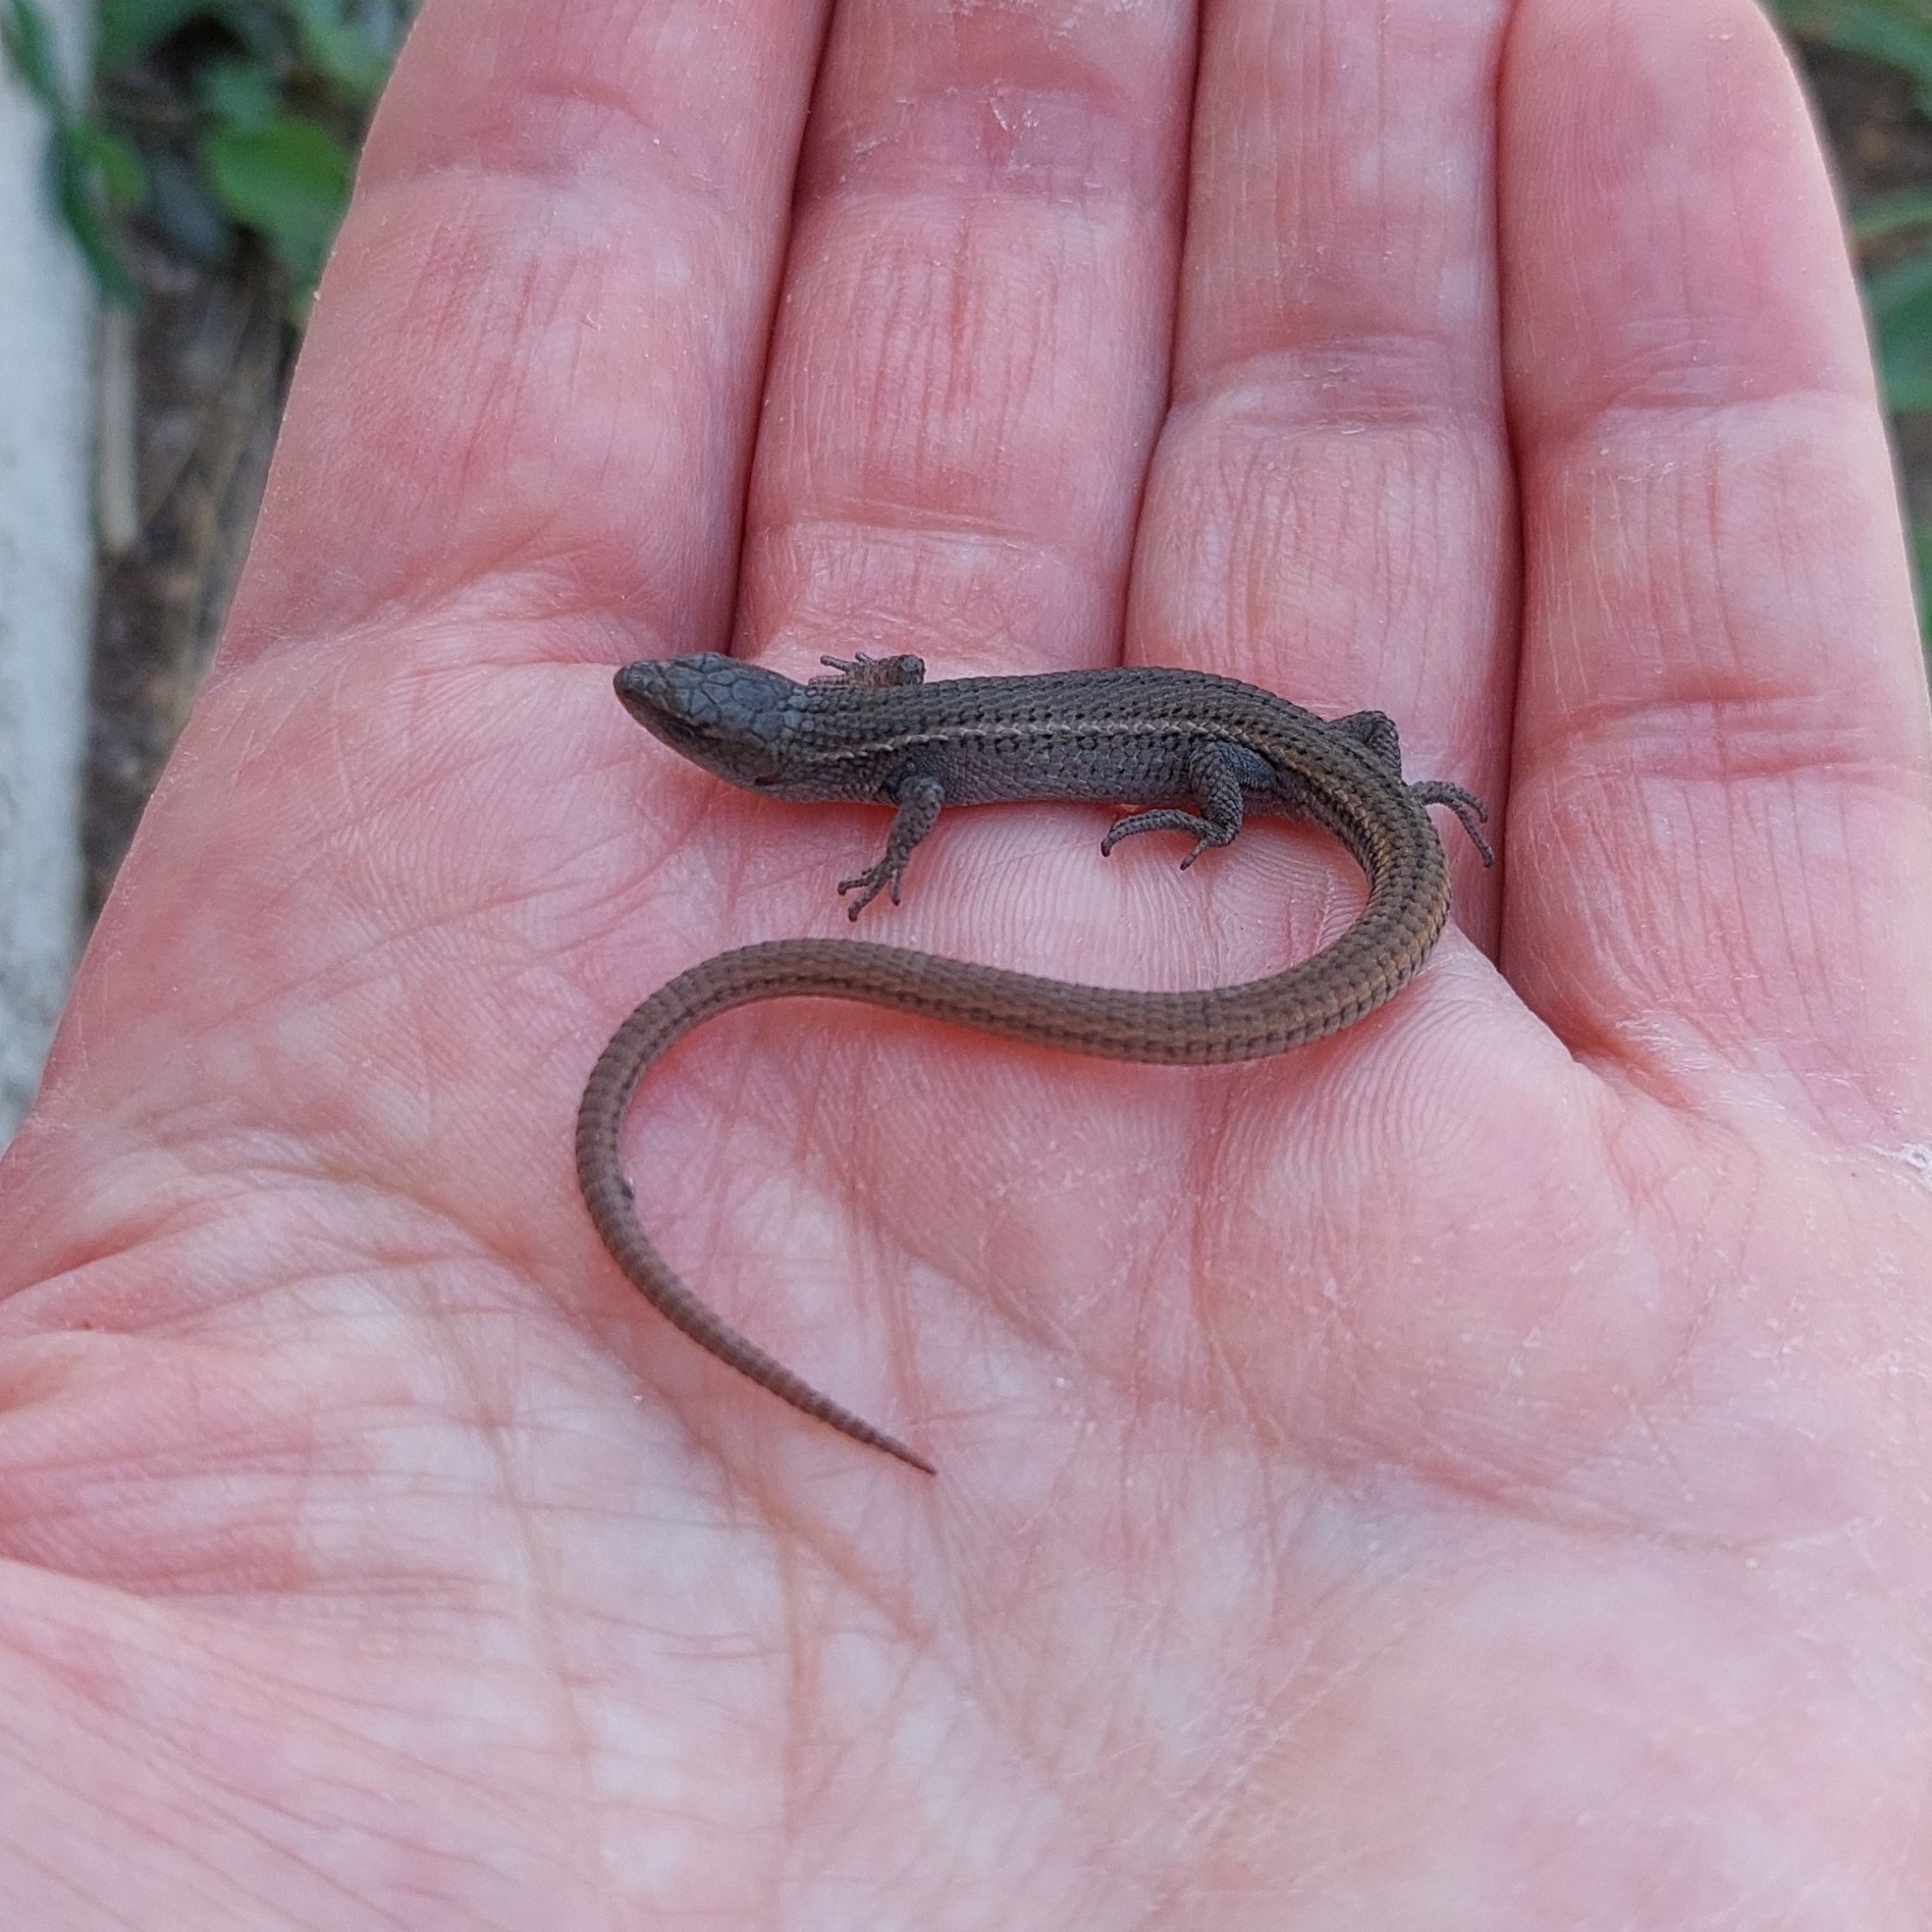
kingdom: Animalia
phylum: Chordata
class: Squamata
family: Gymnophthalmidae
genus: Cercosaura
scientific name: Cercosaura schreibersii
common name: Schreibers' many-fingered teiid
